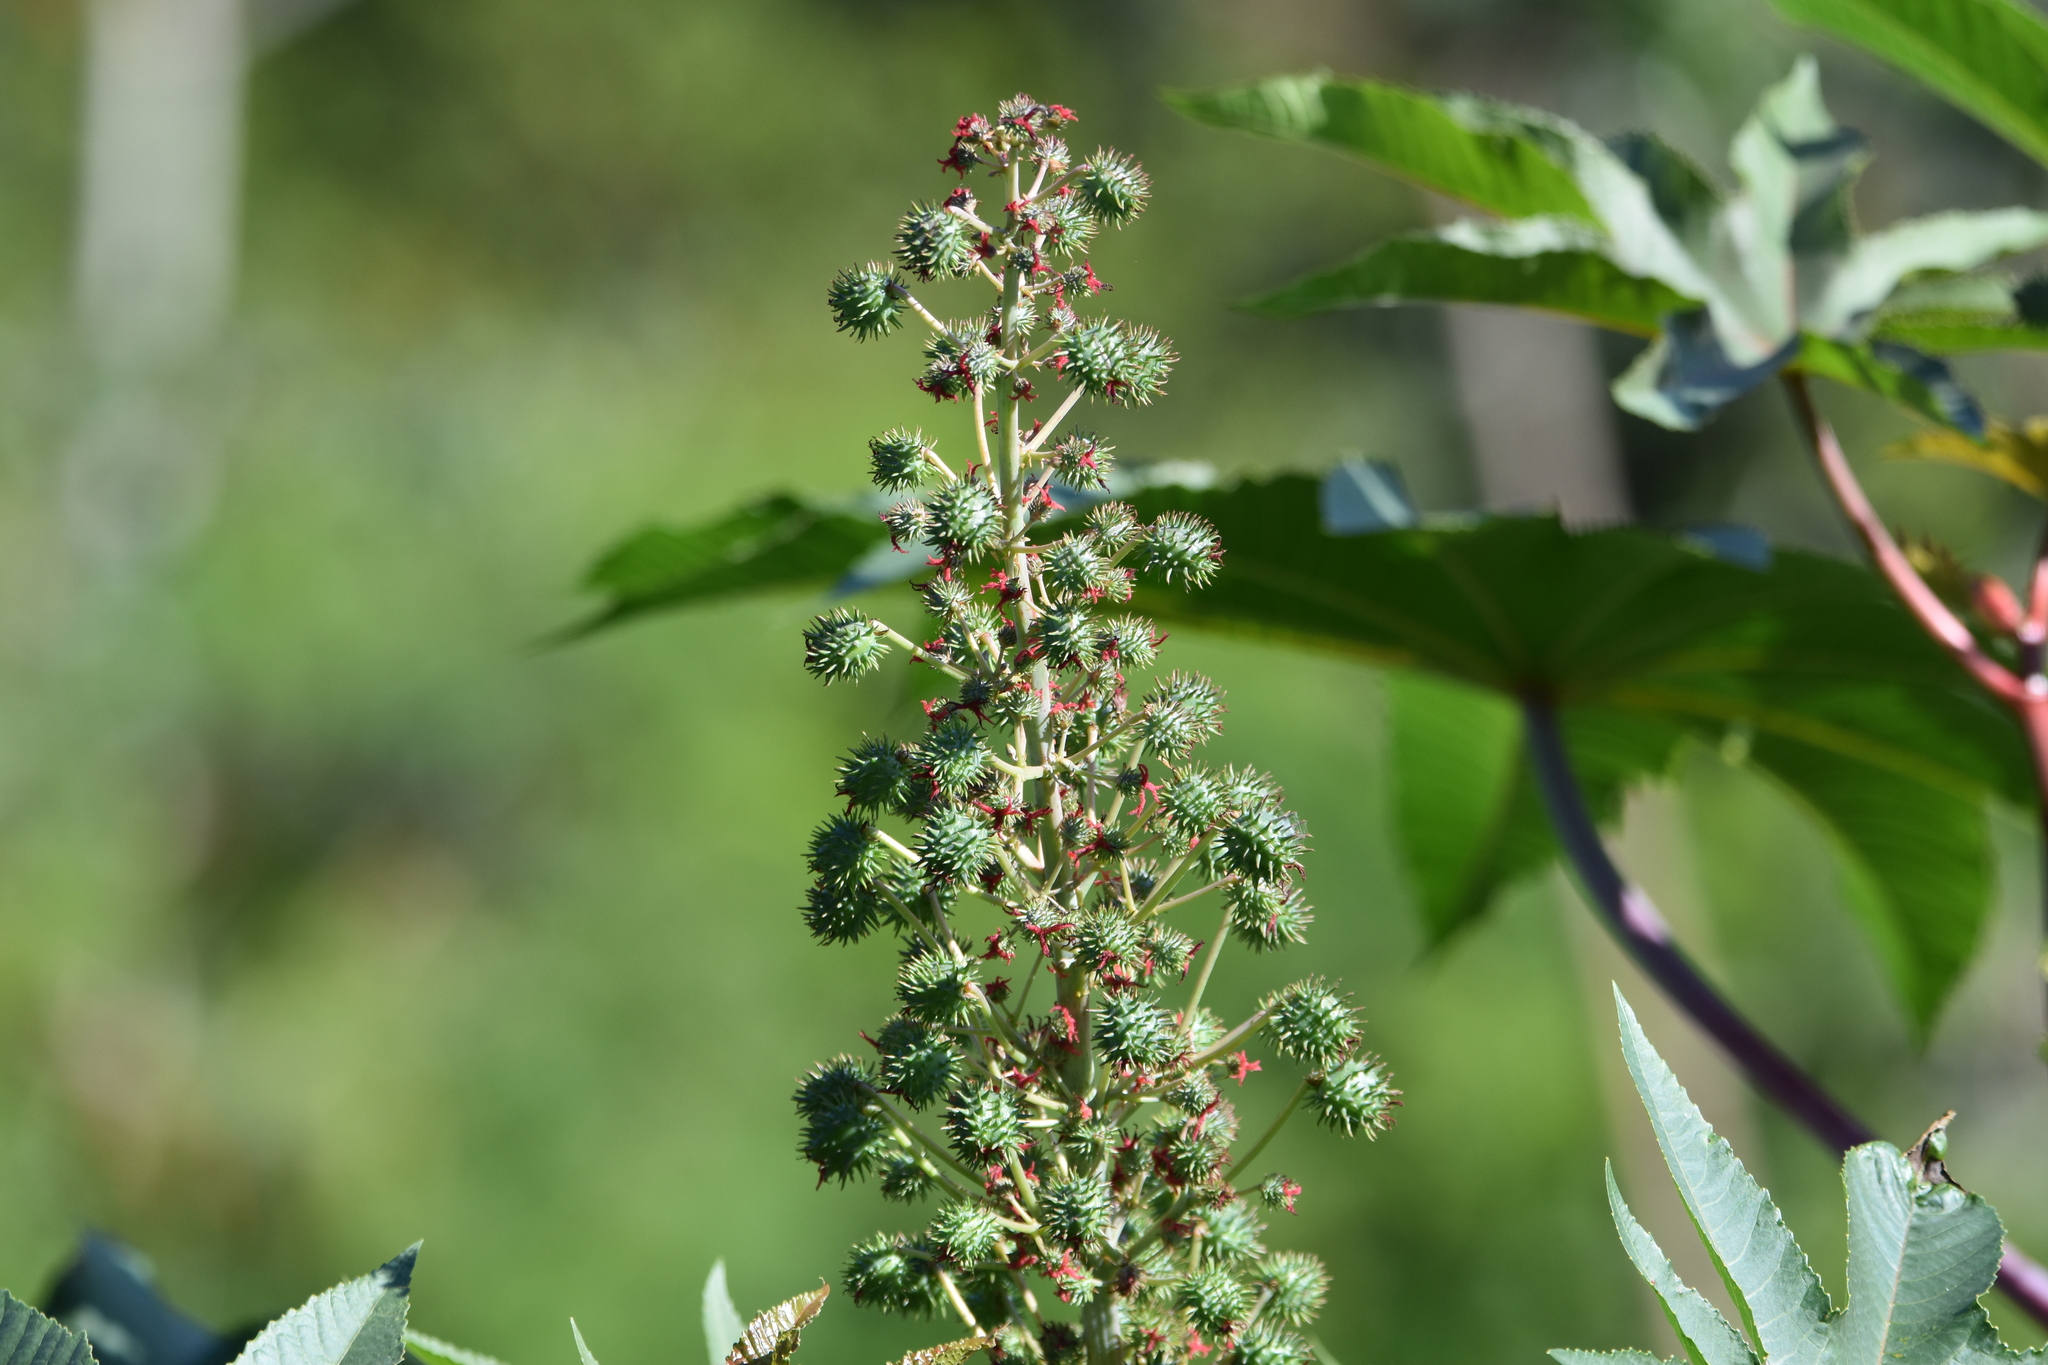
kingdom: Plantae
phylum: Tracheophyta
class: Magnoliopsida
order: Malpighiales
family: Euphorbiaceae
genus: Ricinus
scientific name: Ricinus communis
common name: Castor-oil-plant
